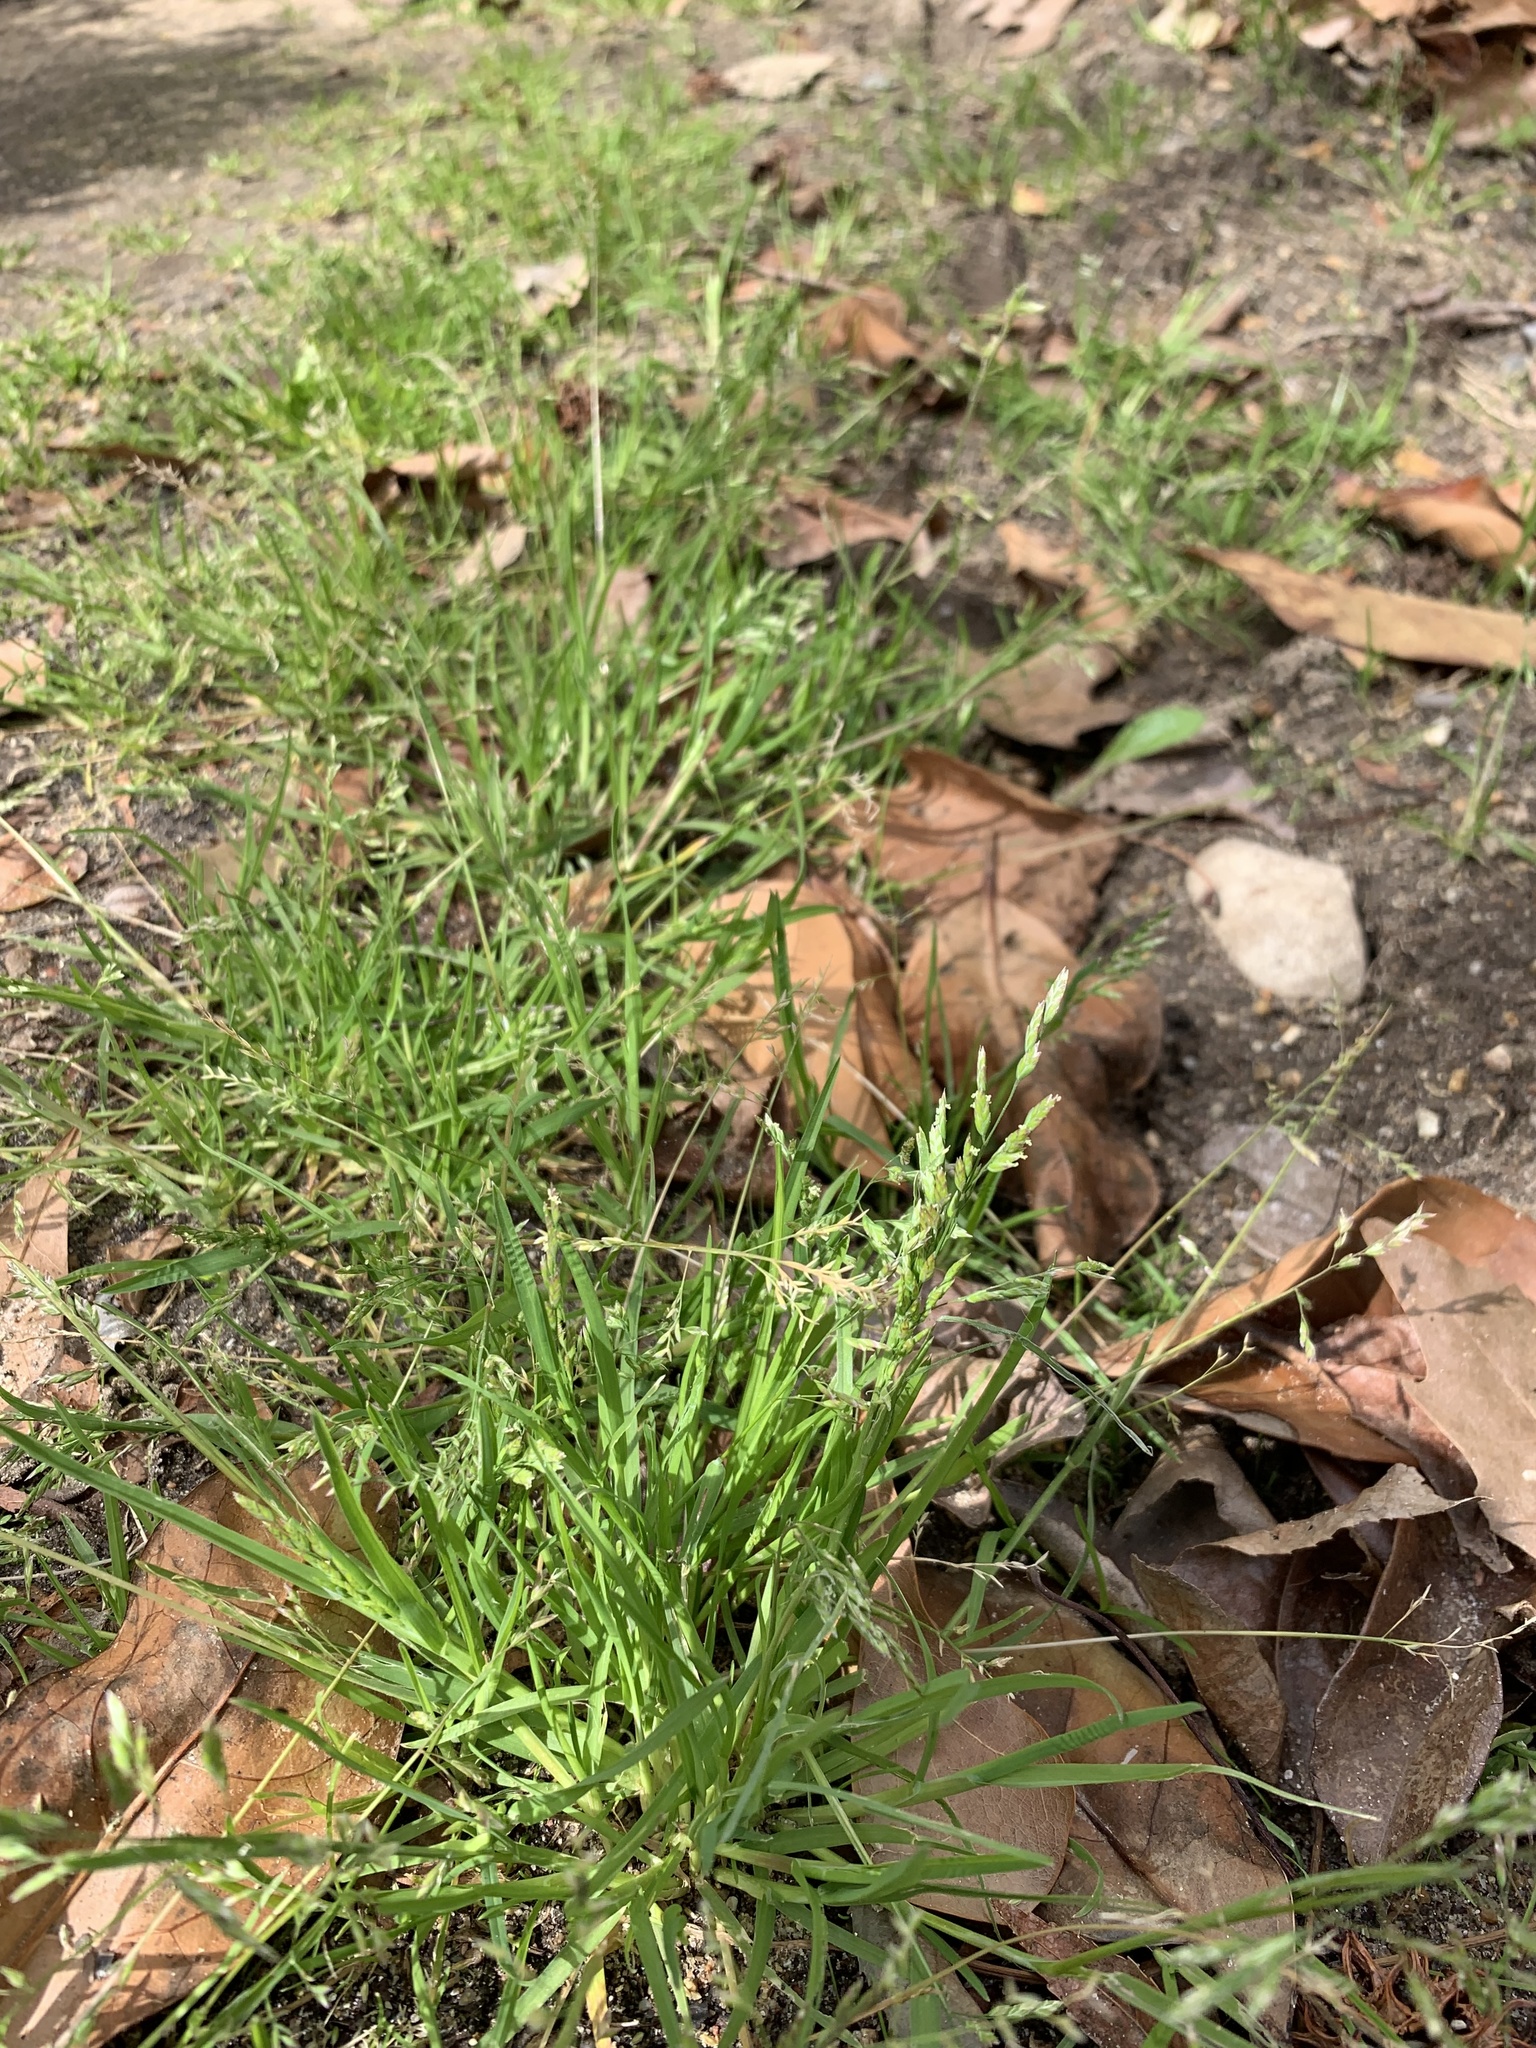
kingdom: Plantae
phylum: Tracheophyta
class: Liliopsida
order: Poales
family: Poaceae
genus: Poa
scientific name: Poa annua
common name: Annual bluegrass
